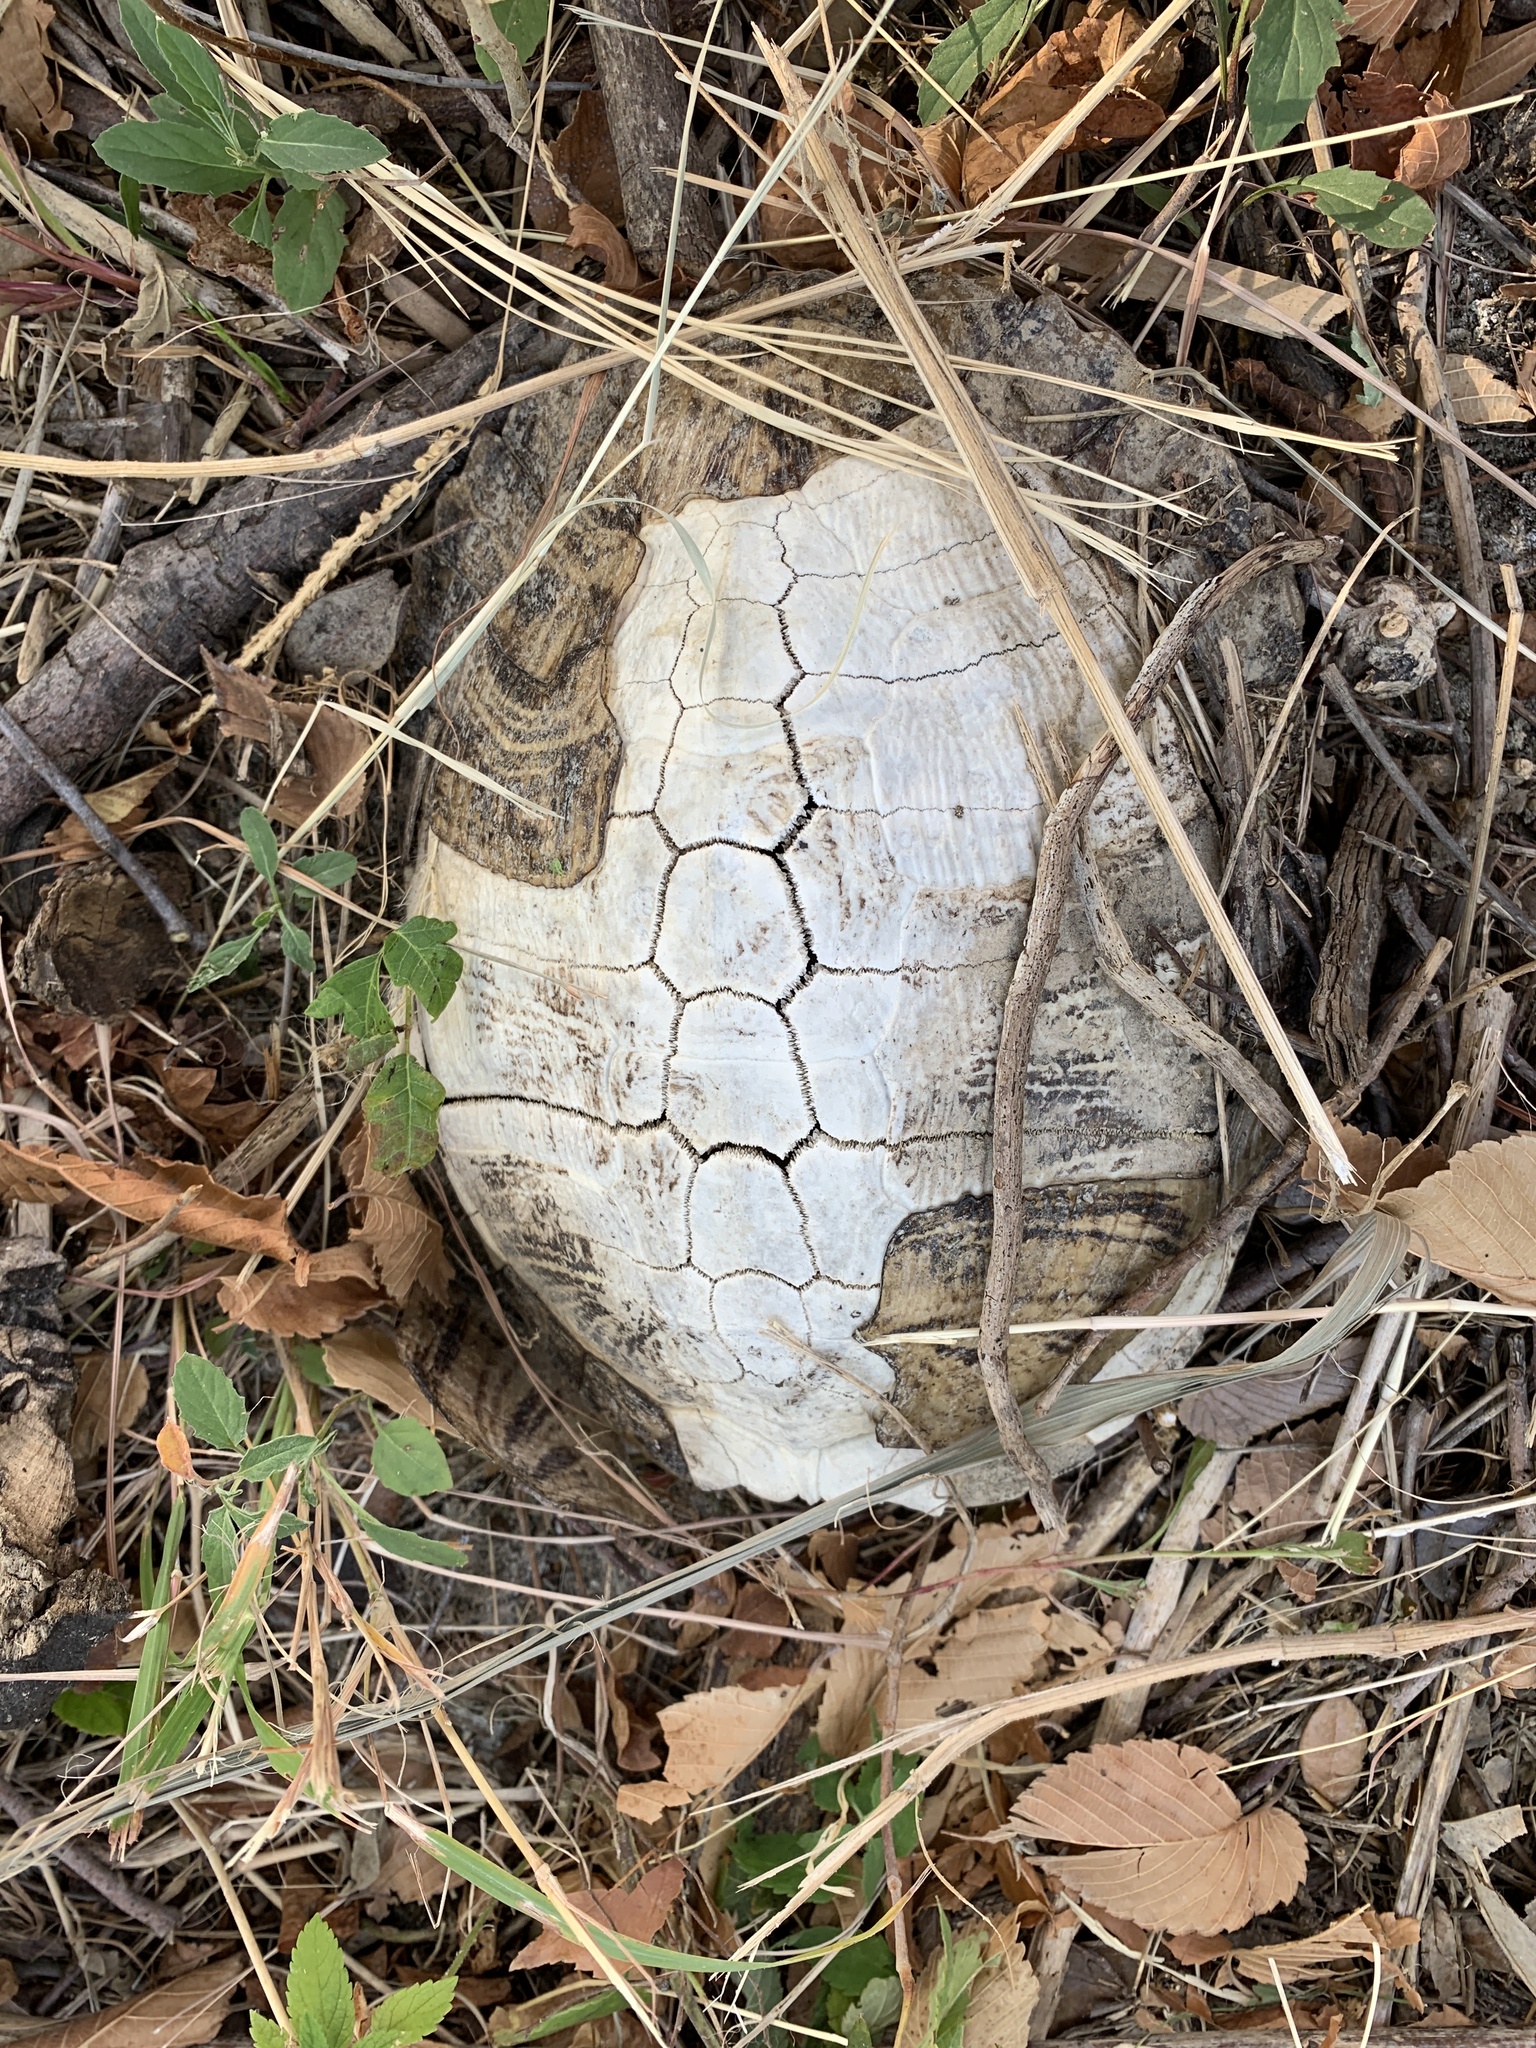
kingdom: Animalia
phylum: Chordata
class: Testudines
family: Emydidae
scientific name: Emydidae
